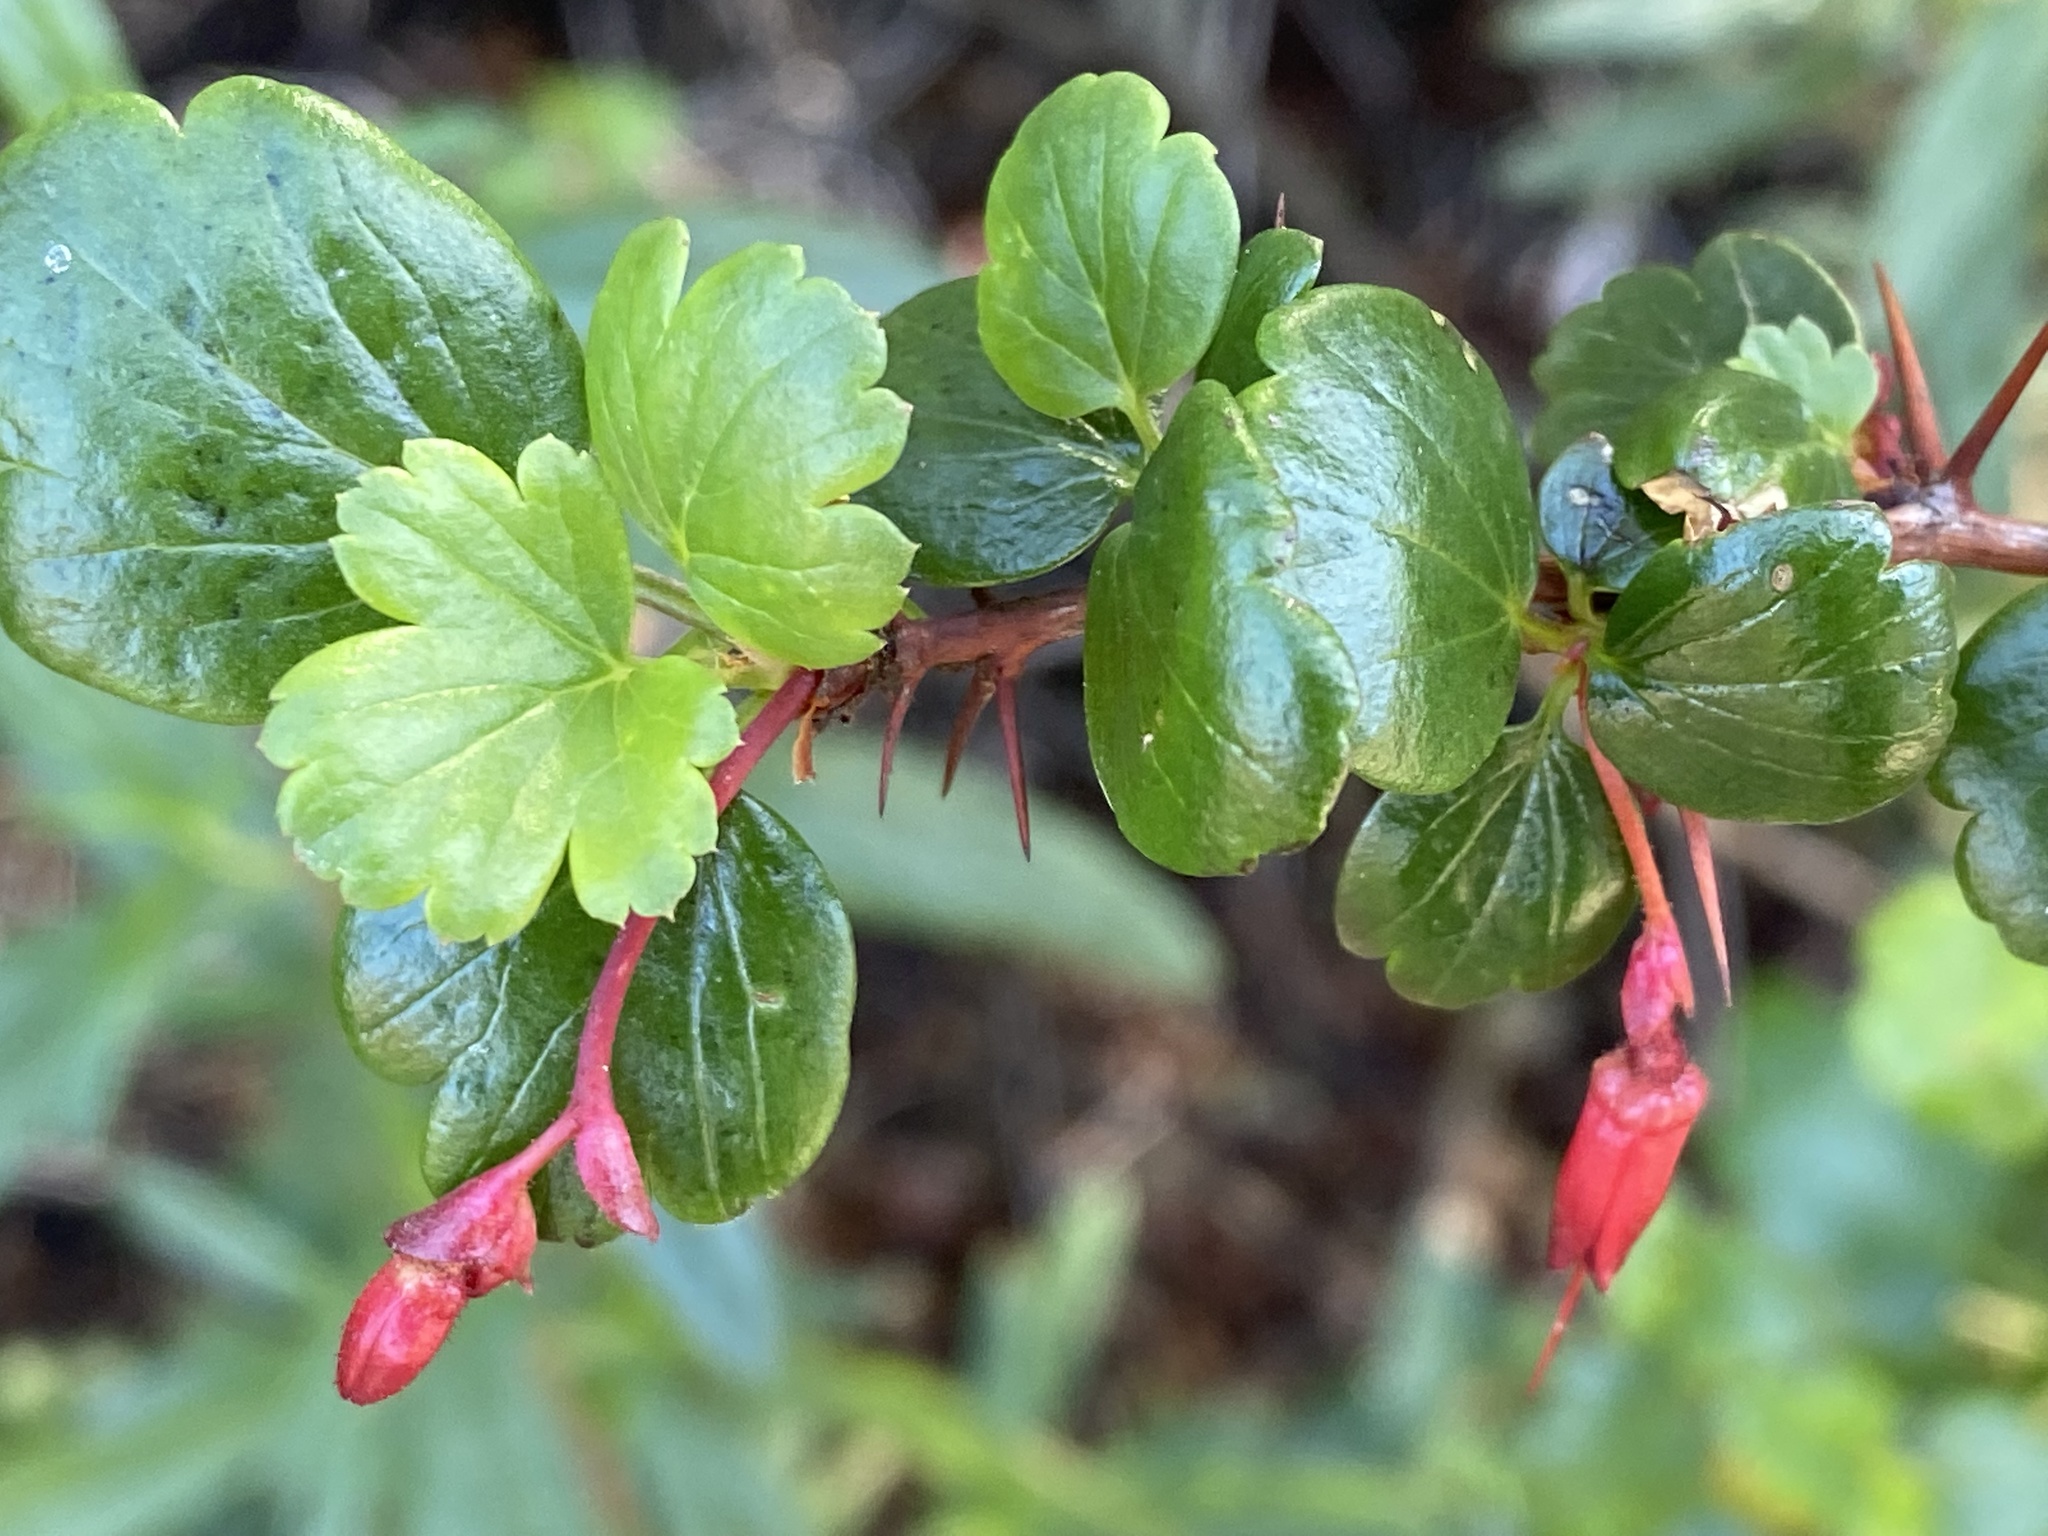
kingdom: Plantae
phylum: Tracheophyta
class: Magnoliopsida
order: Saxifragales
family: Grossulariaceae
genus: Ribes
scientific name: Ribes speciosum
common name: Fuchsia-flower gooseberry
